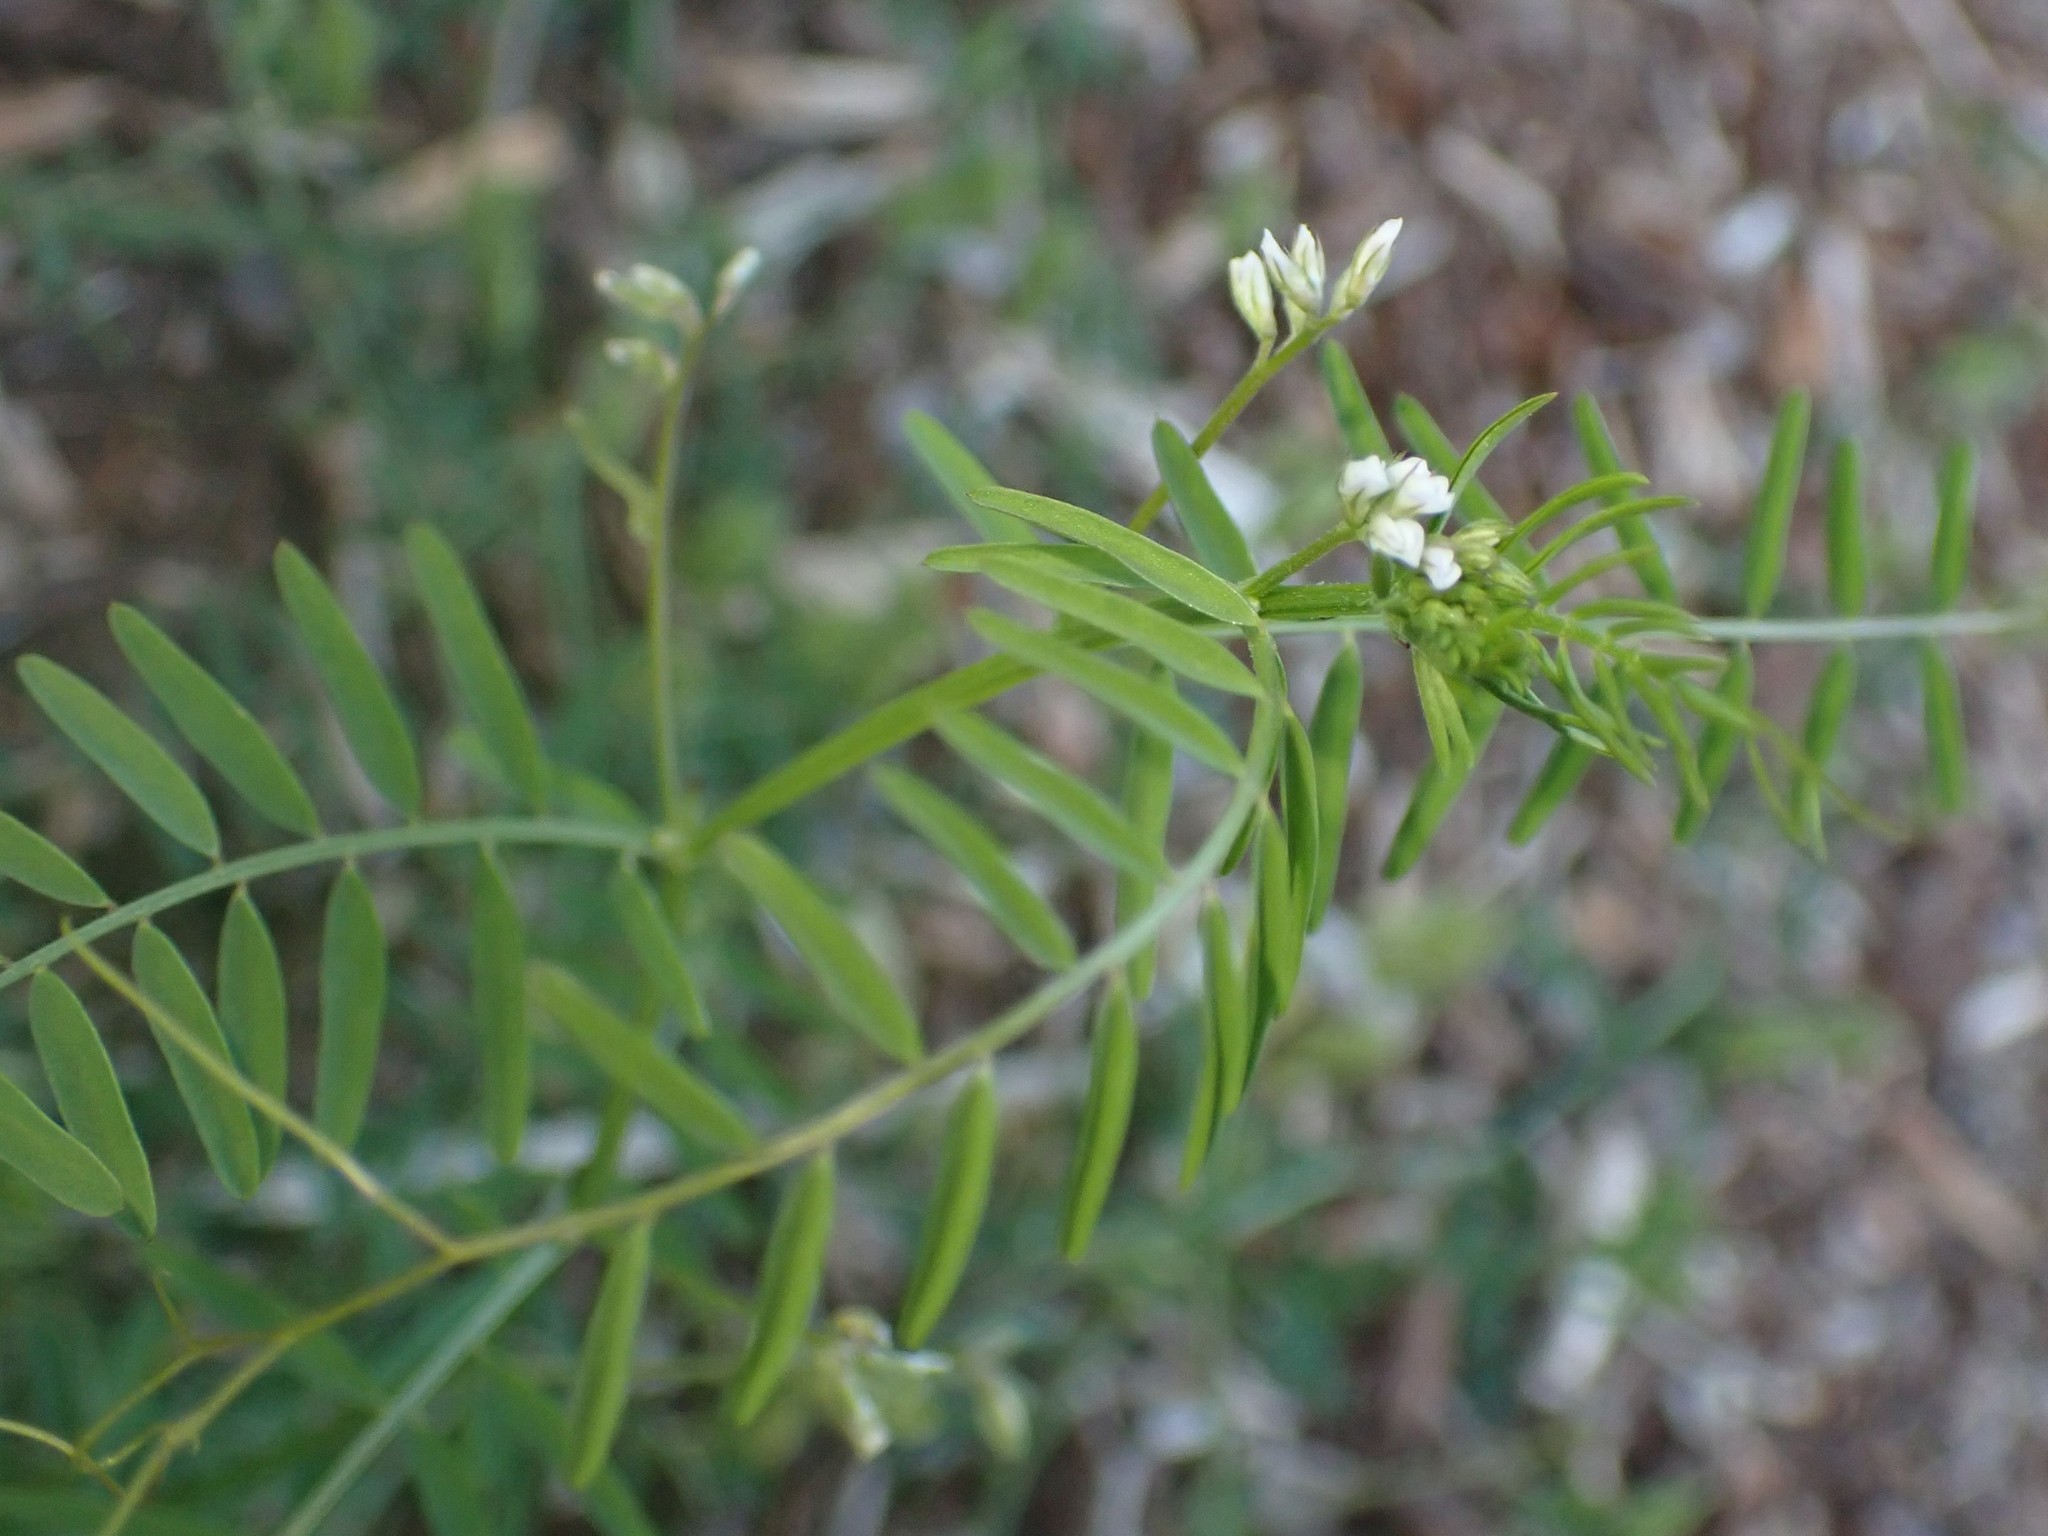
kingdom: Plantae
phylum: Tracheophyta
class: Magnoliopsida
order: Fabales
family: Fabaceae
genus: Vicia
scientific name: Vicia hirsuta
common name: Tiny vetch
